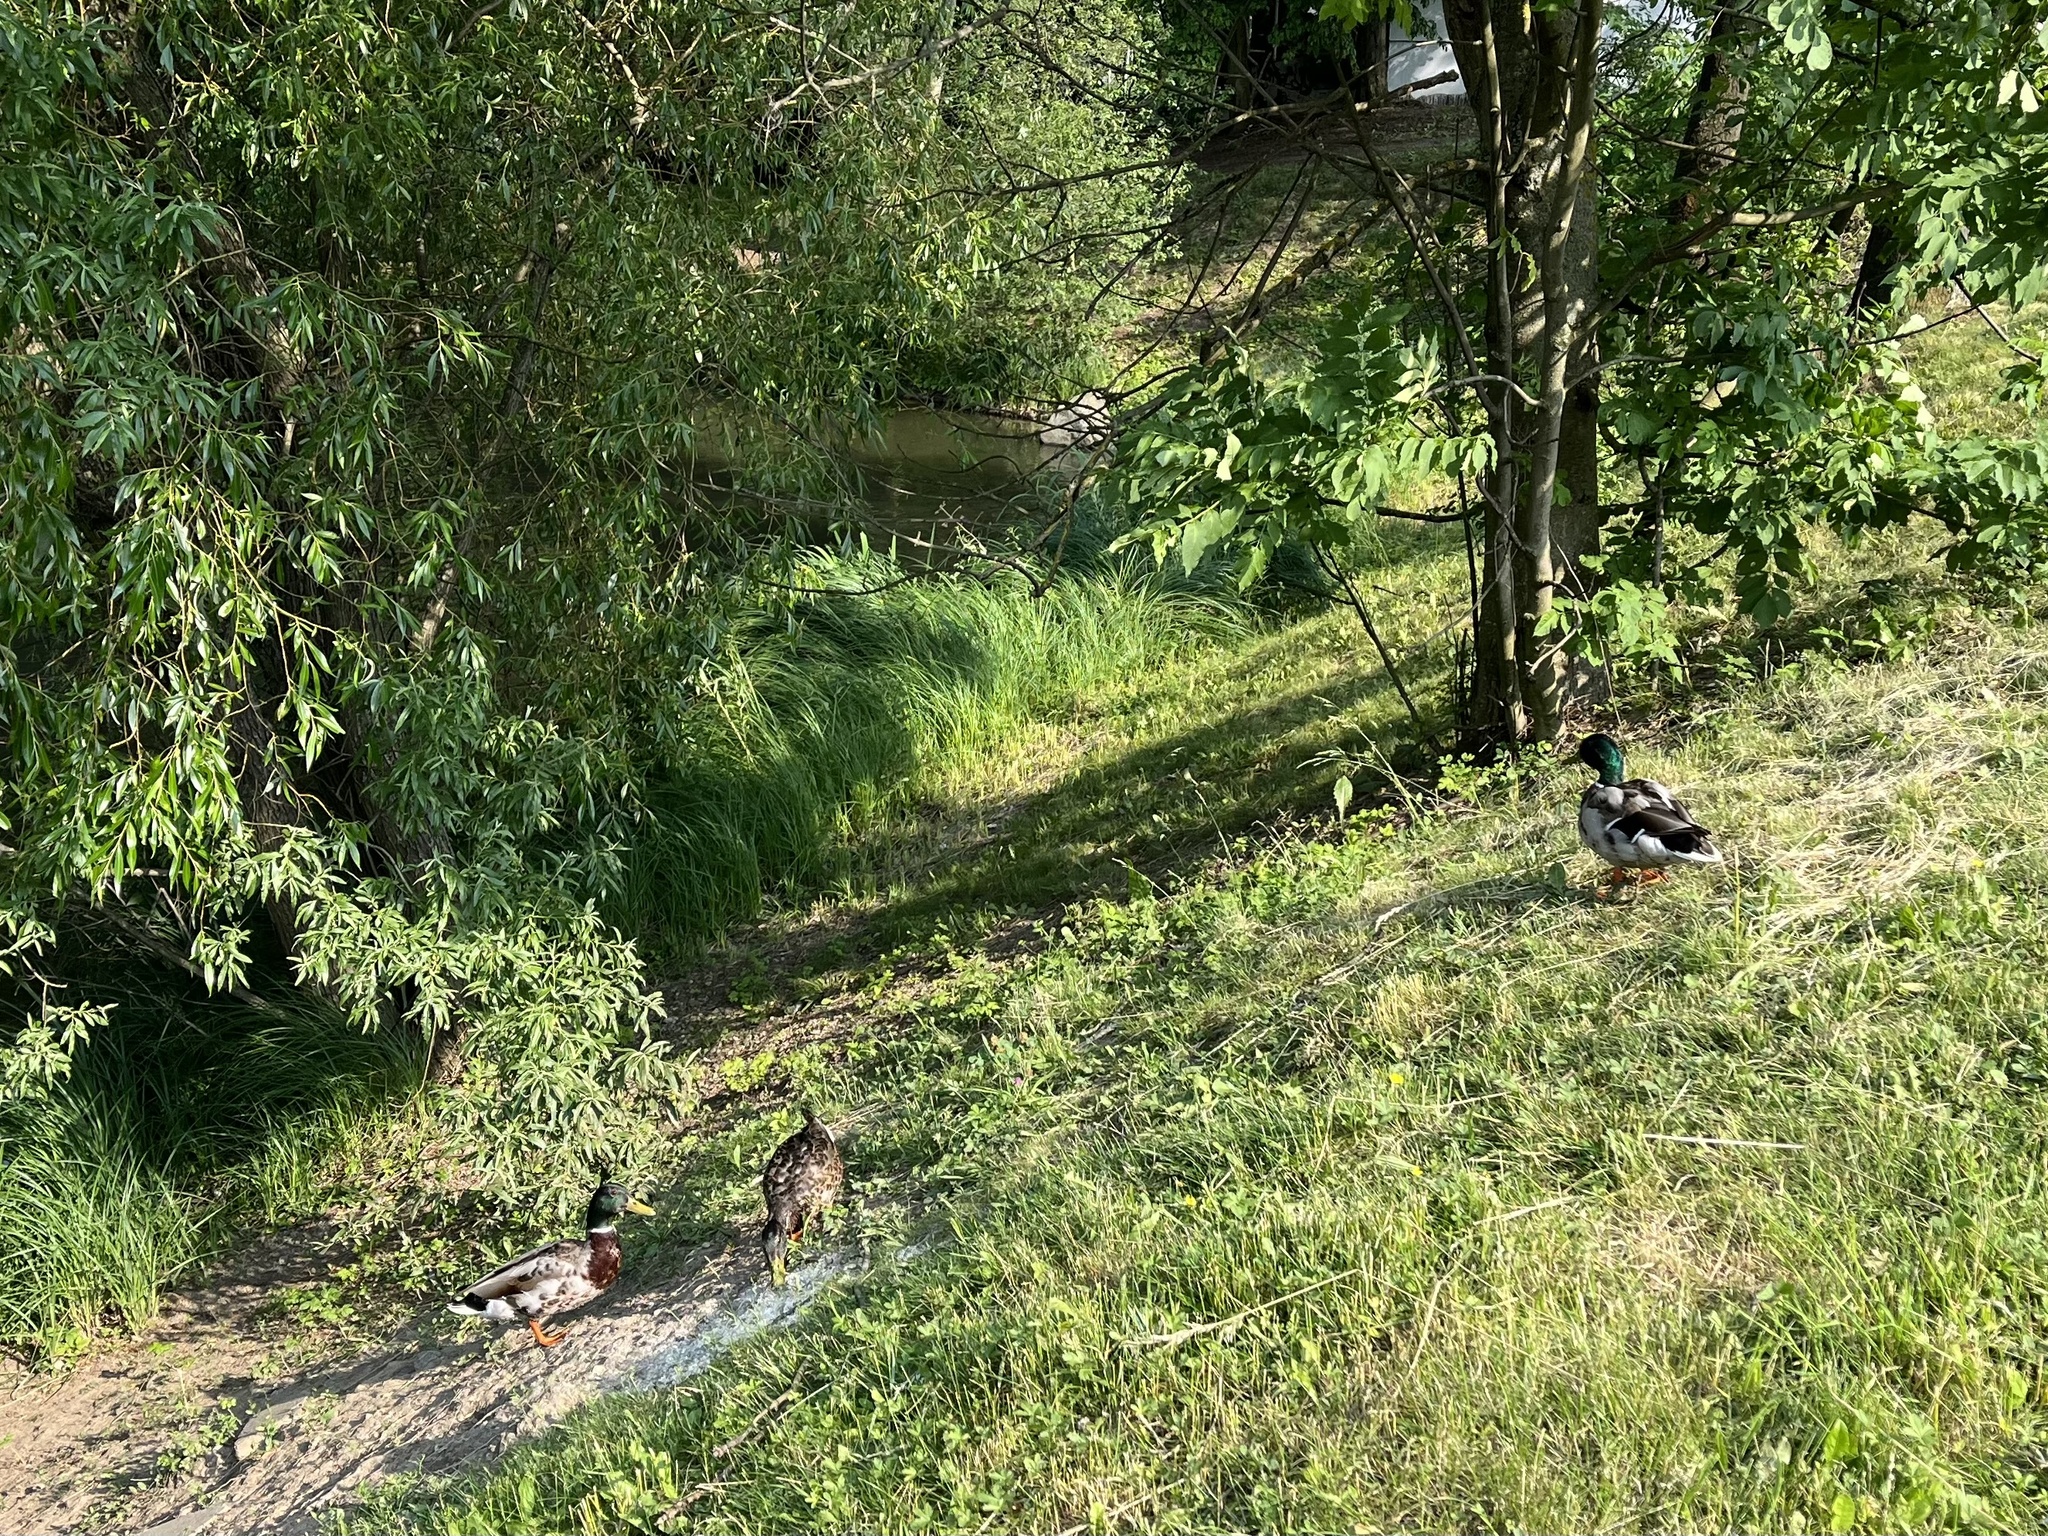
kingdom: Animalia
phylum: Chordata
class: Aves
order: Anseriformes
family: Anatidae
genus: Anas
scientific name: Anas platyrhynchos
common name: Mallard
